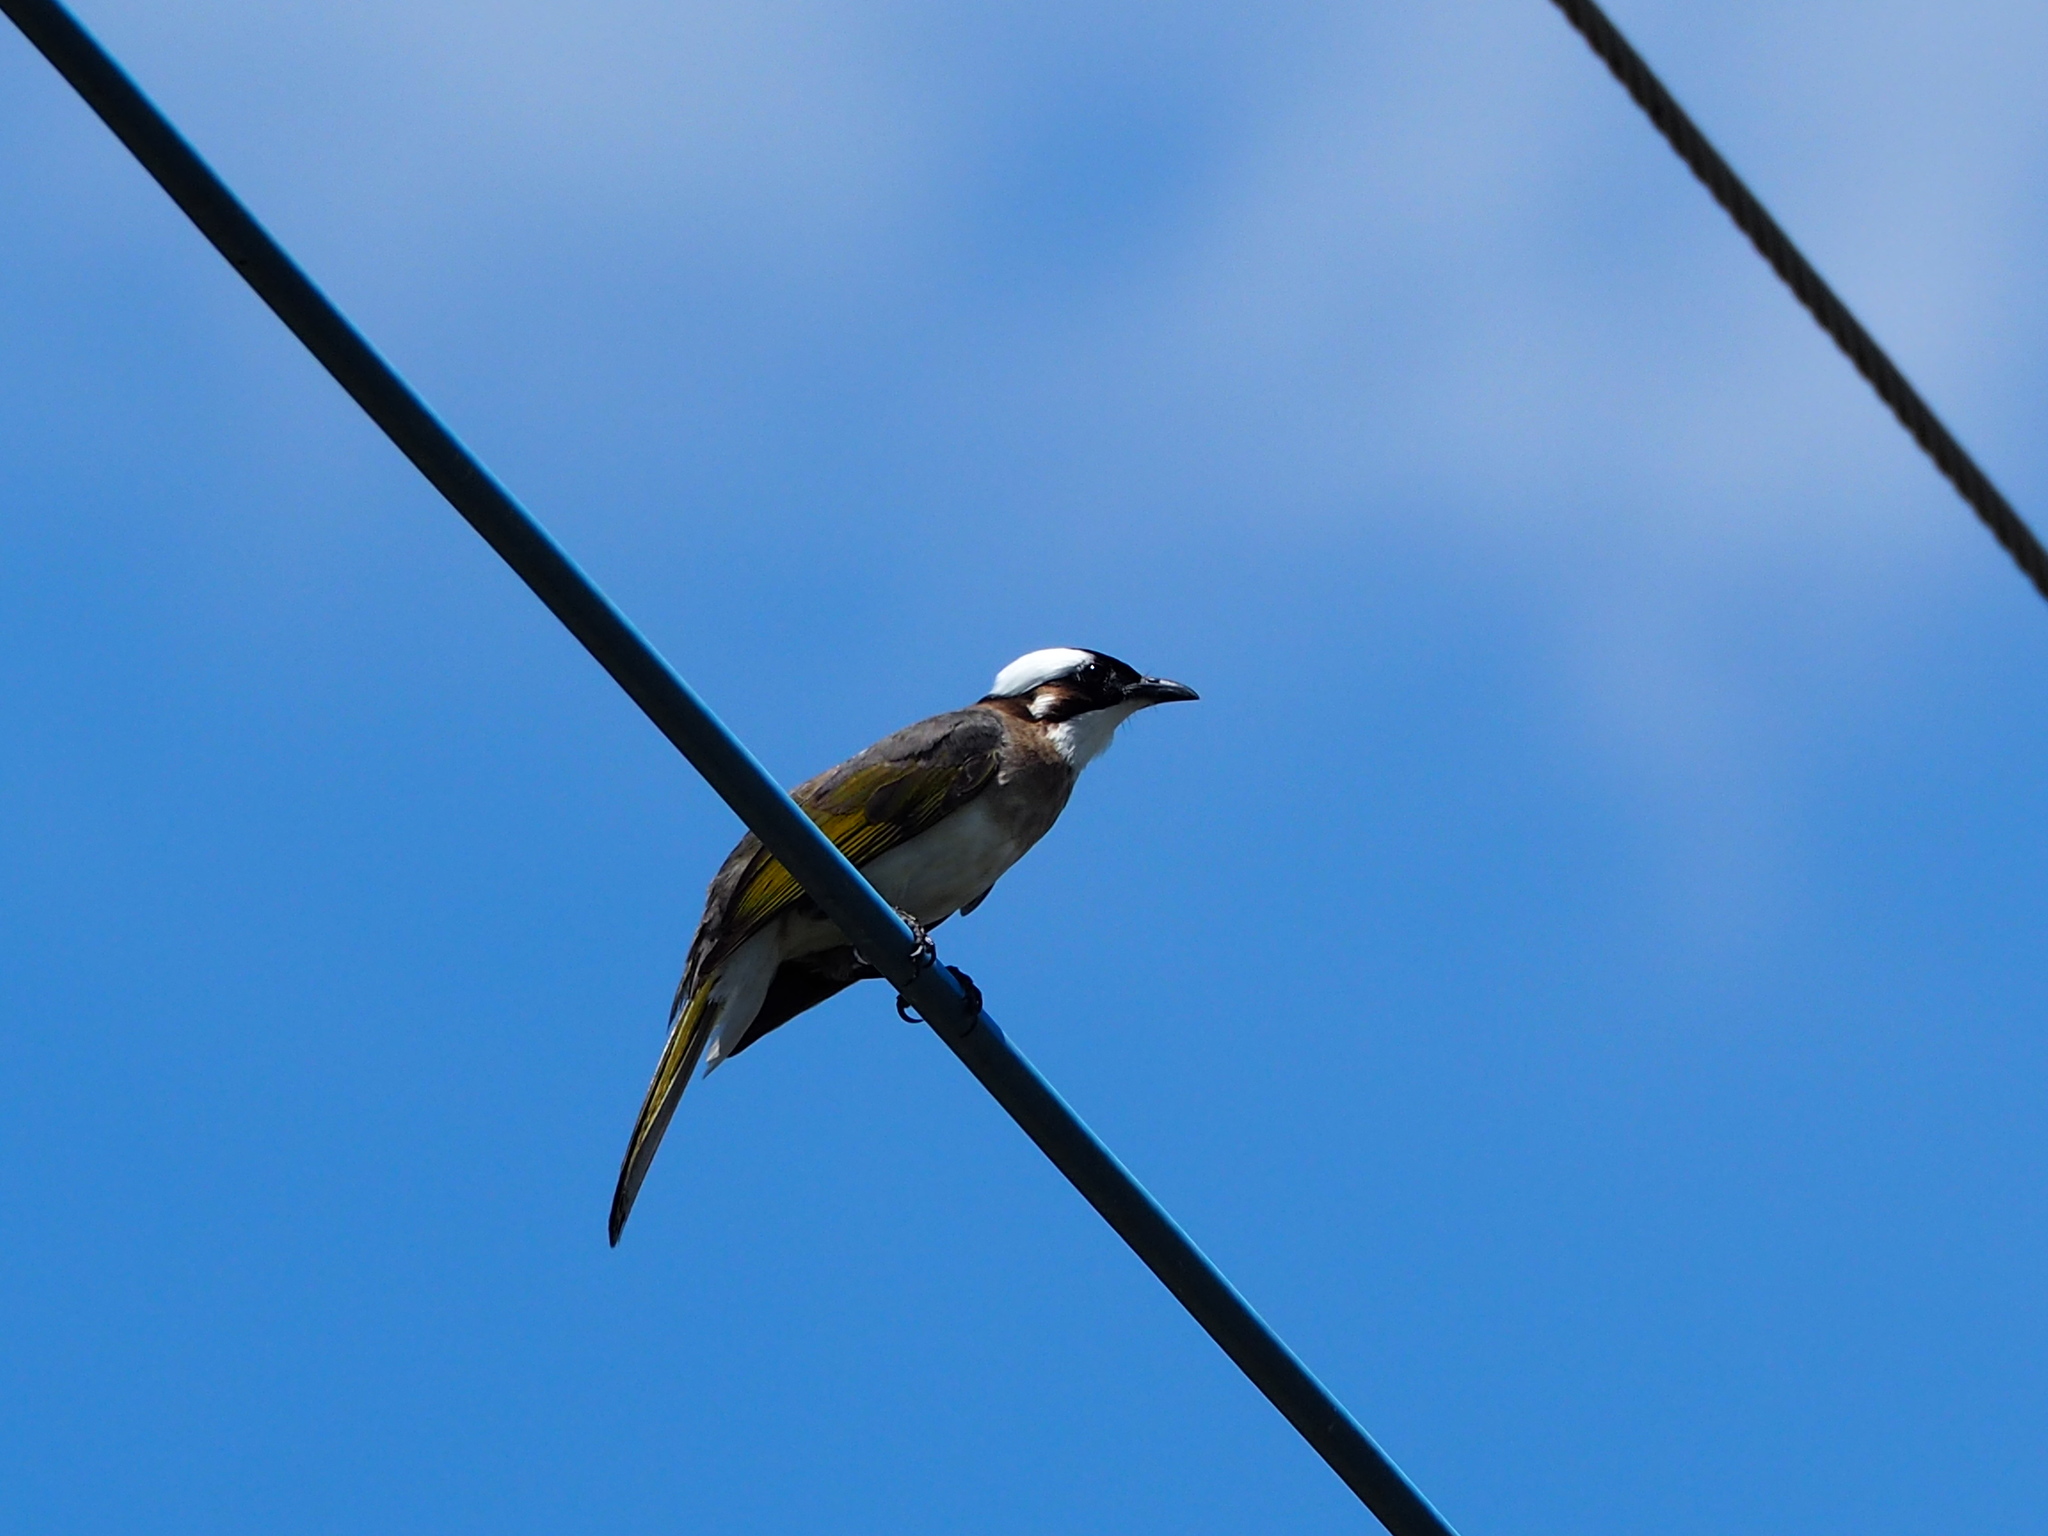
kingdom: Animalia
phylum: Chordata
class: Aves
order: Passeriformes
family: Pycnonotidae
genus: Pycnonotus
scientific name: Pycnonotus sinensis
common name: Light-vented bulbul
